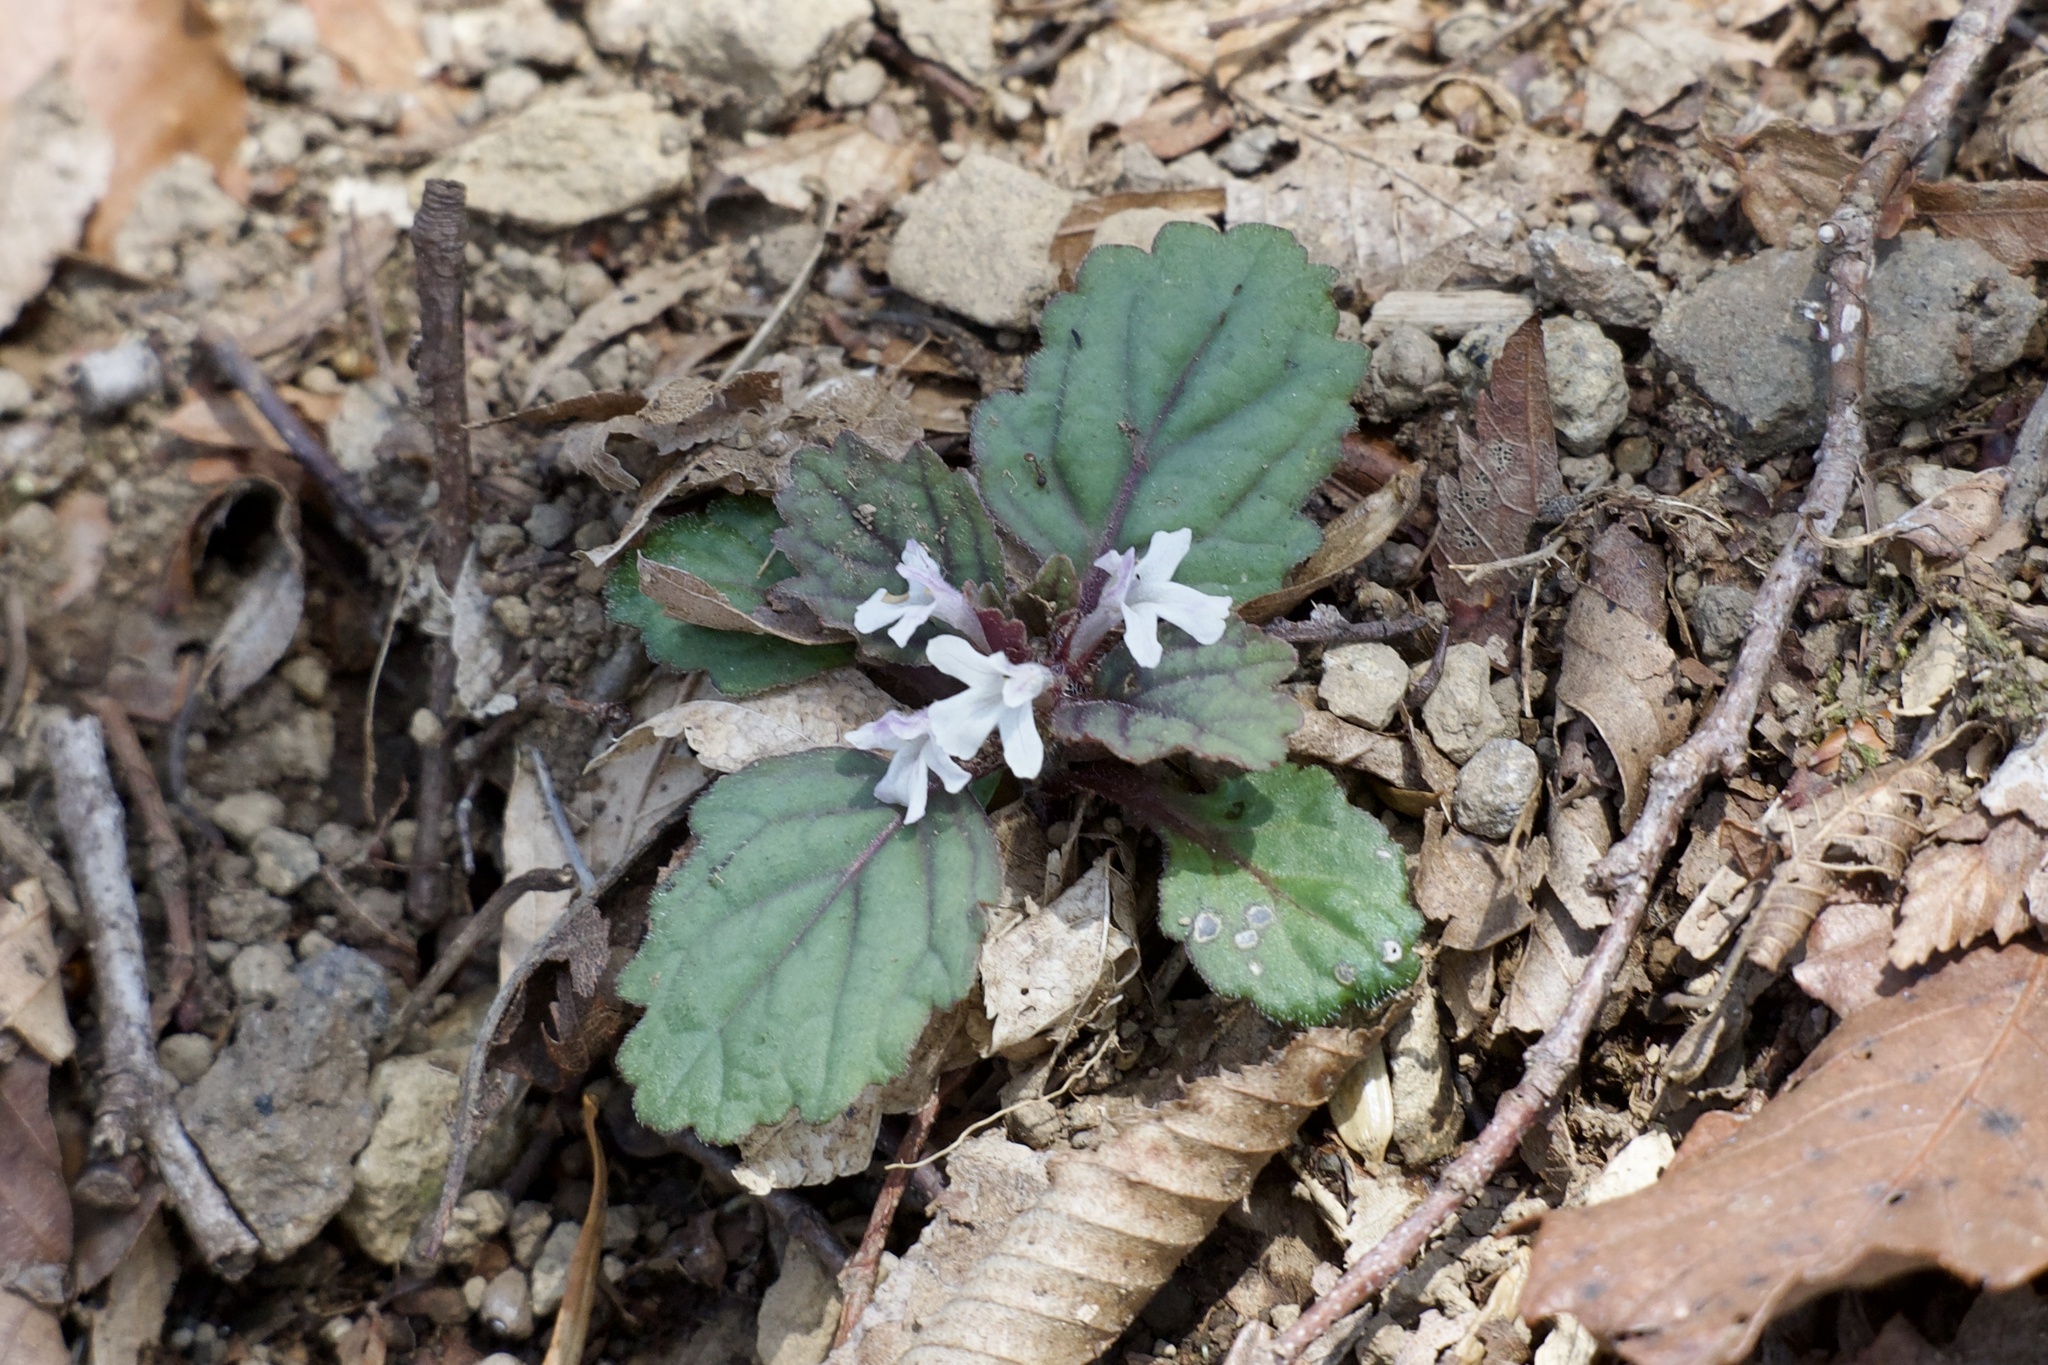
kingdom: Plantae
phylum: Tracheophyta
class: Magnoliopsida
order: Lamiales
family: Lamiaceae
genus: Ajuga
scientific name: Ajuga yesoensis
